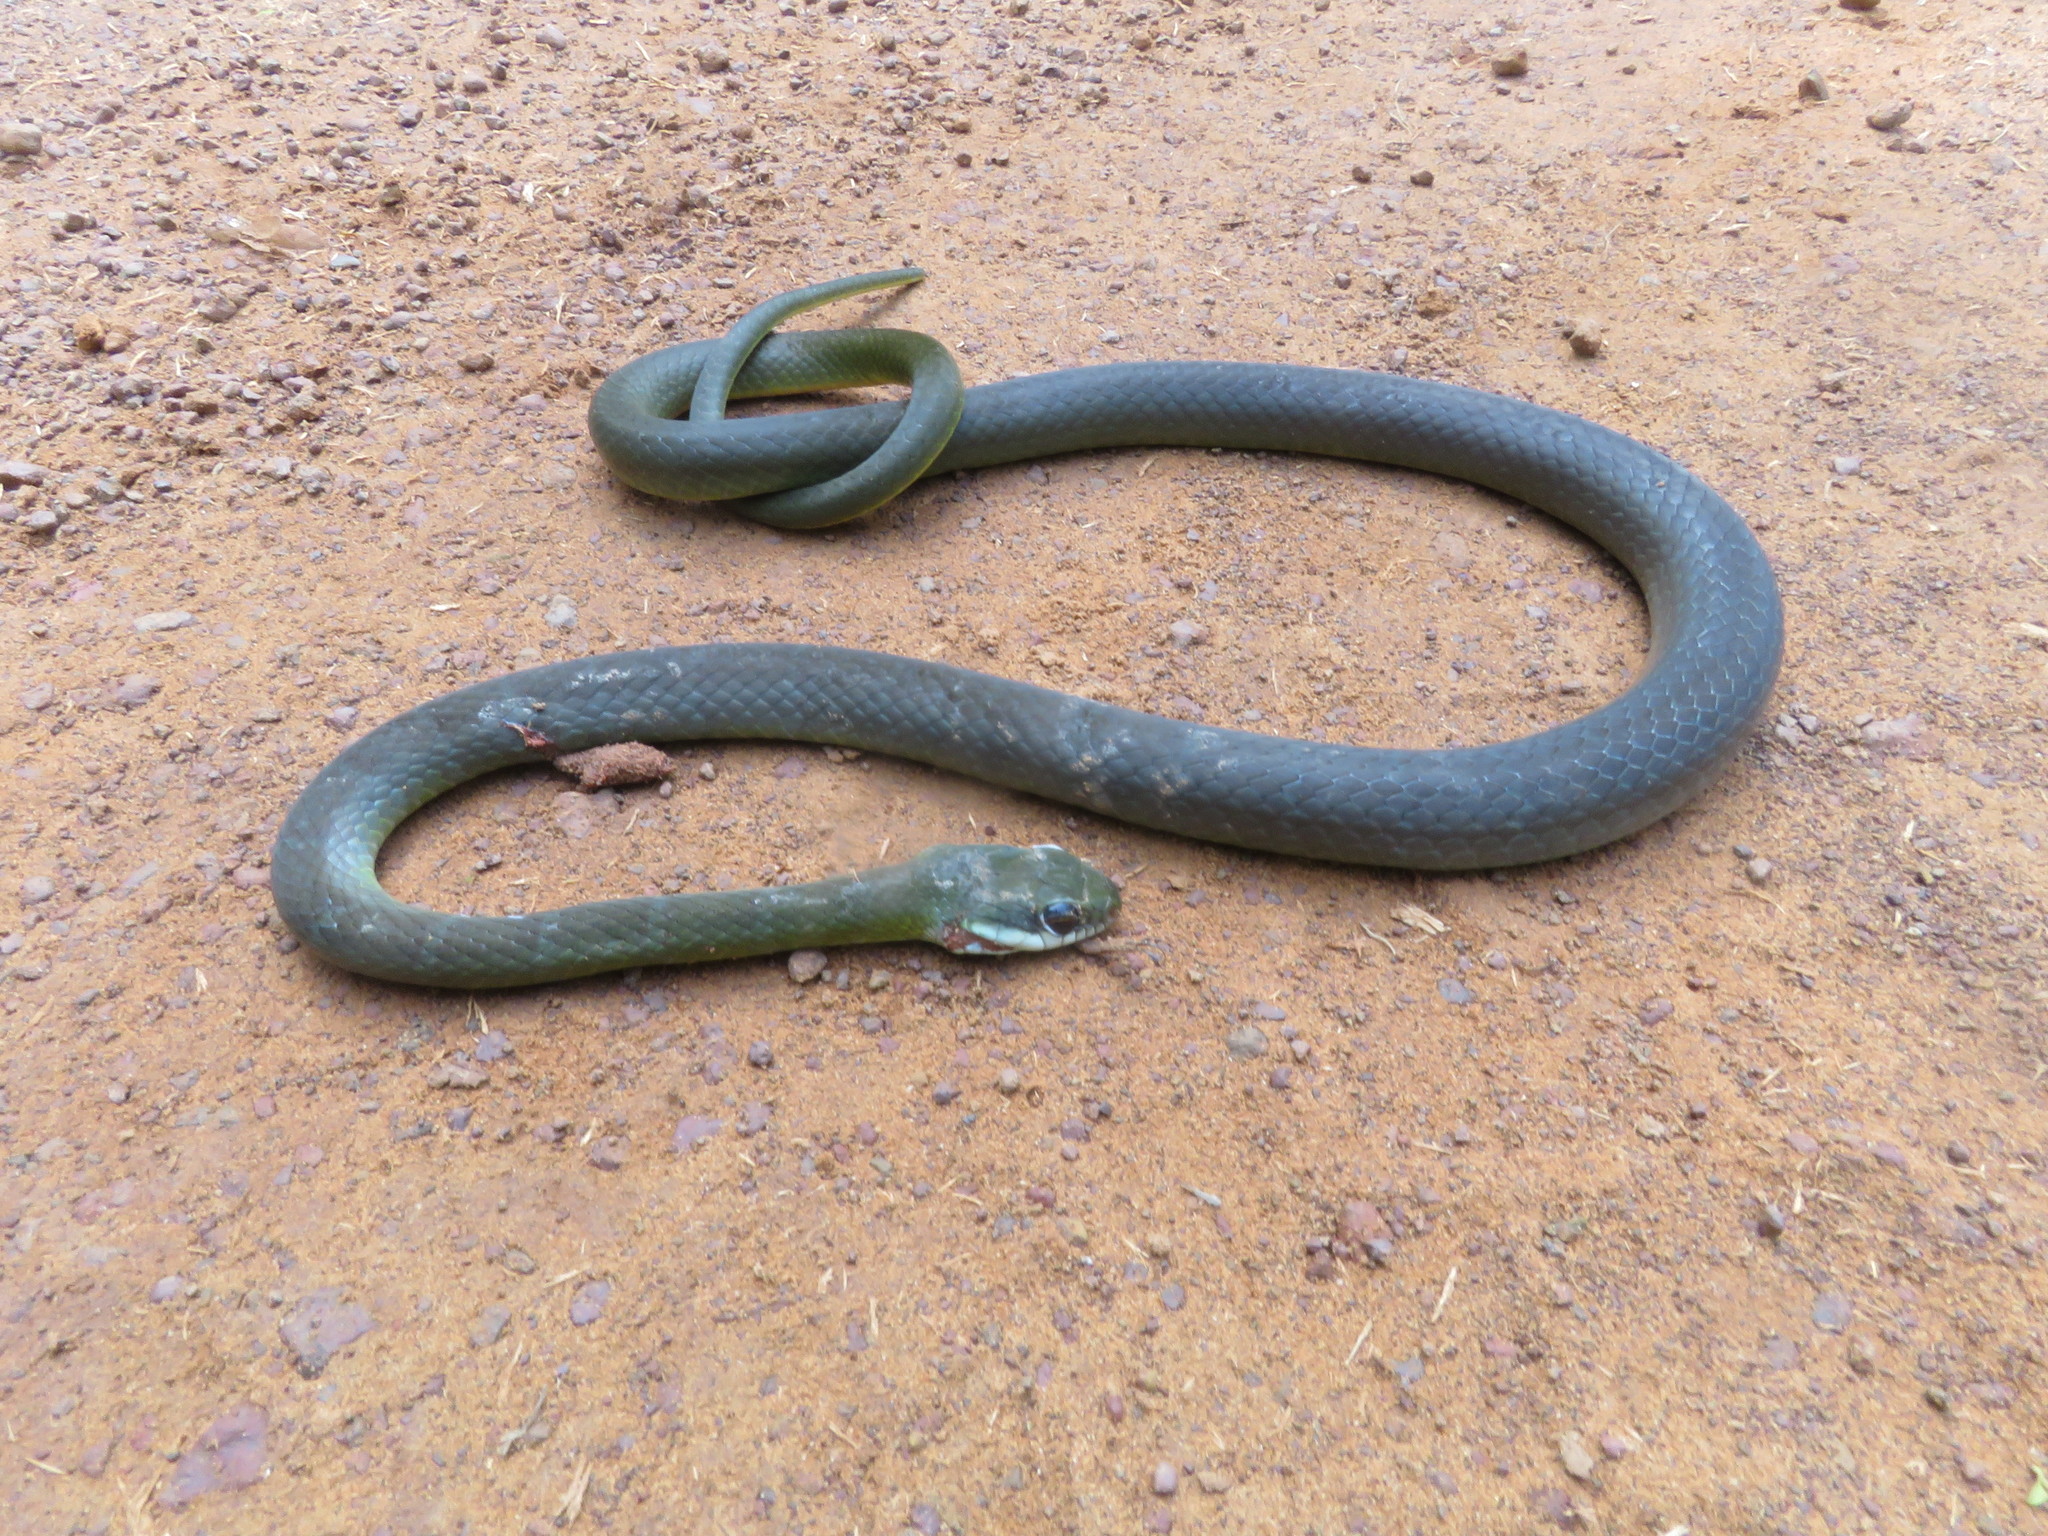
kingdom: Animalia
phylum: Chordata
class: Squamata
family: Colubridae
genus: Drymoluber
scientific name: Drymoluber dichrous
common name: Northern woodland racer
